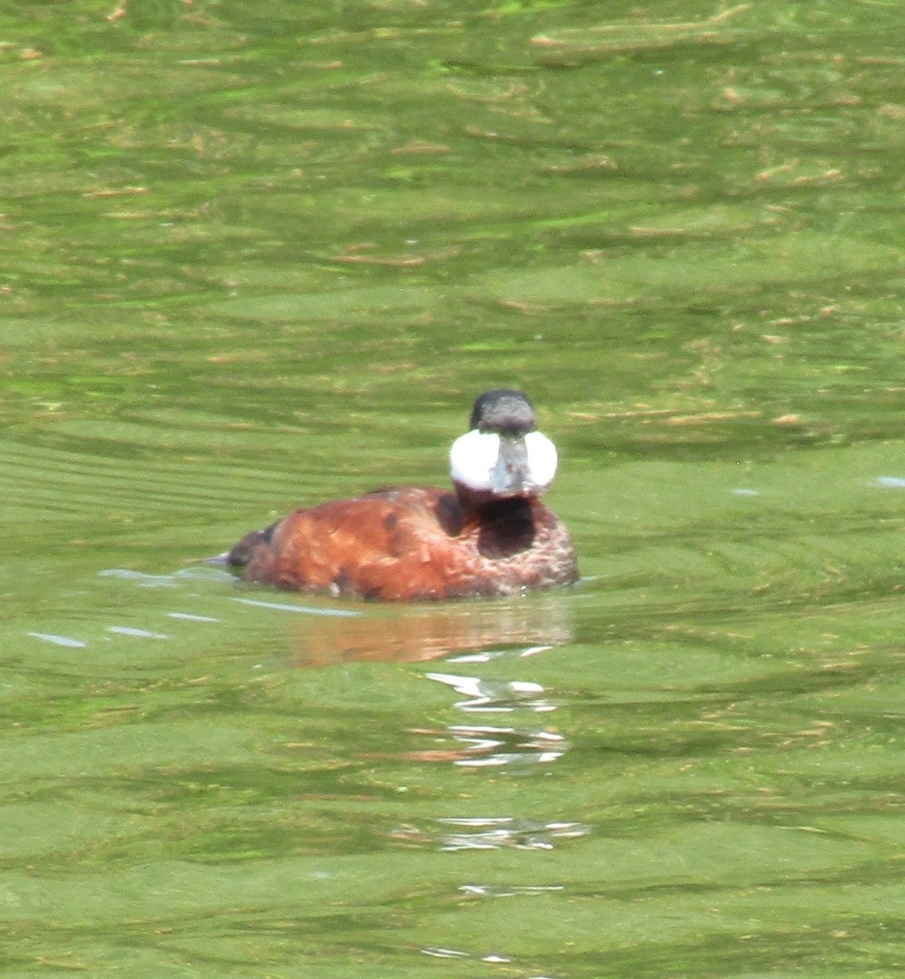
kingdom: Animalia
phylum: Chordata
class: Aves
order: Anseriformes
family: Anatidae
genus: Oxyura
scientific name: Oxyura jamaicensis
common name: Ruddy duck
